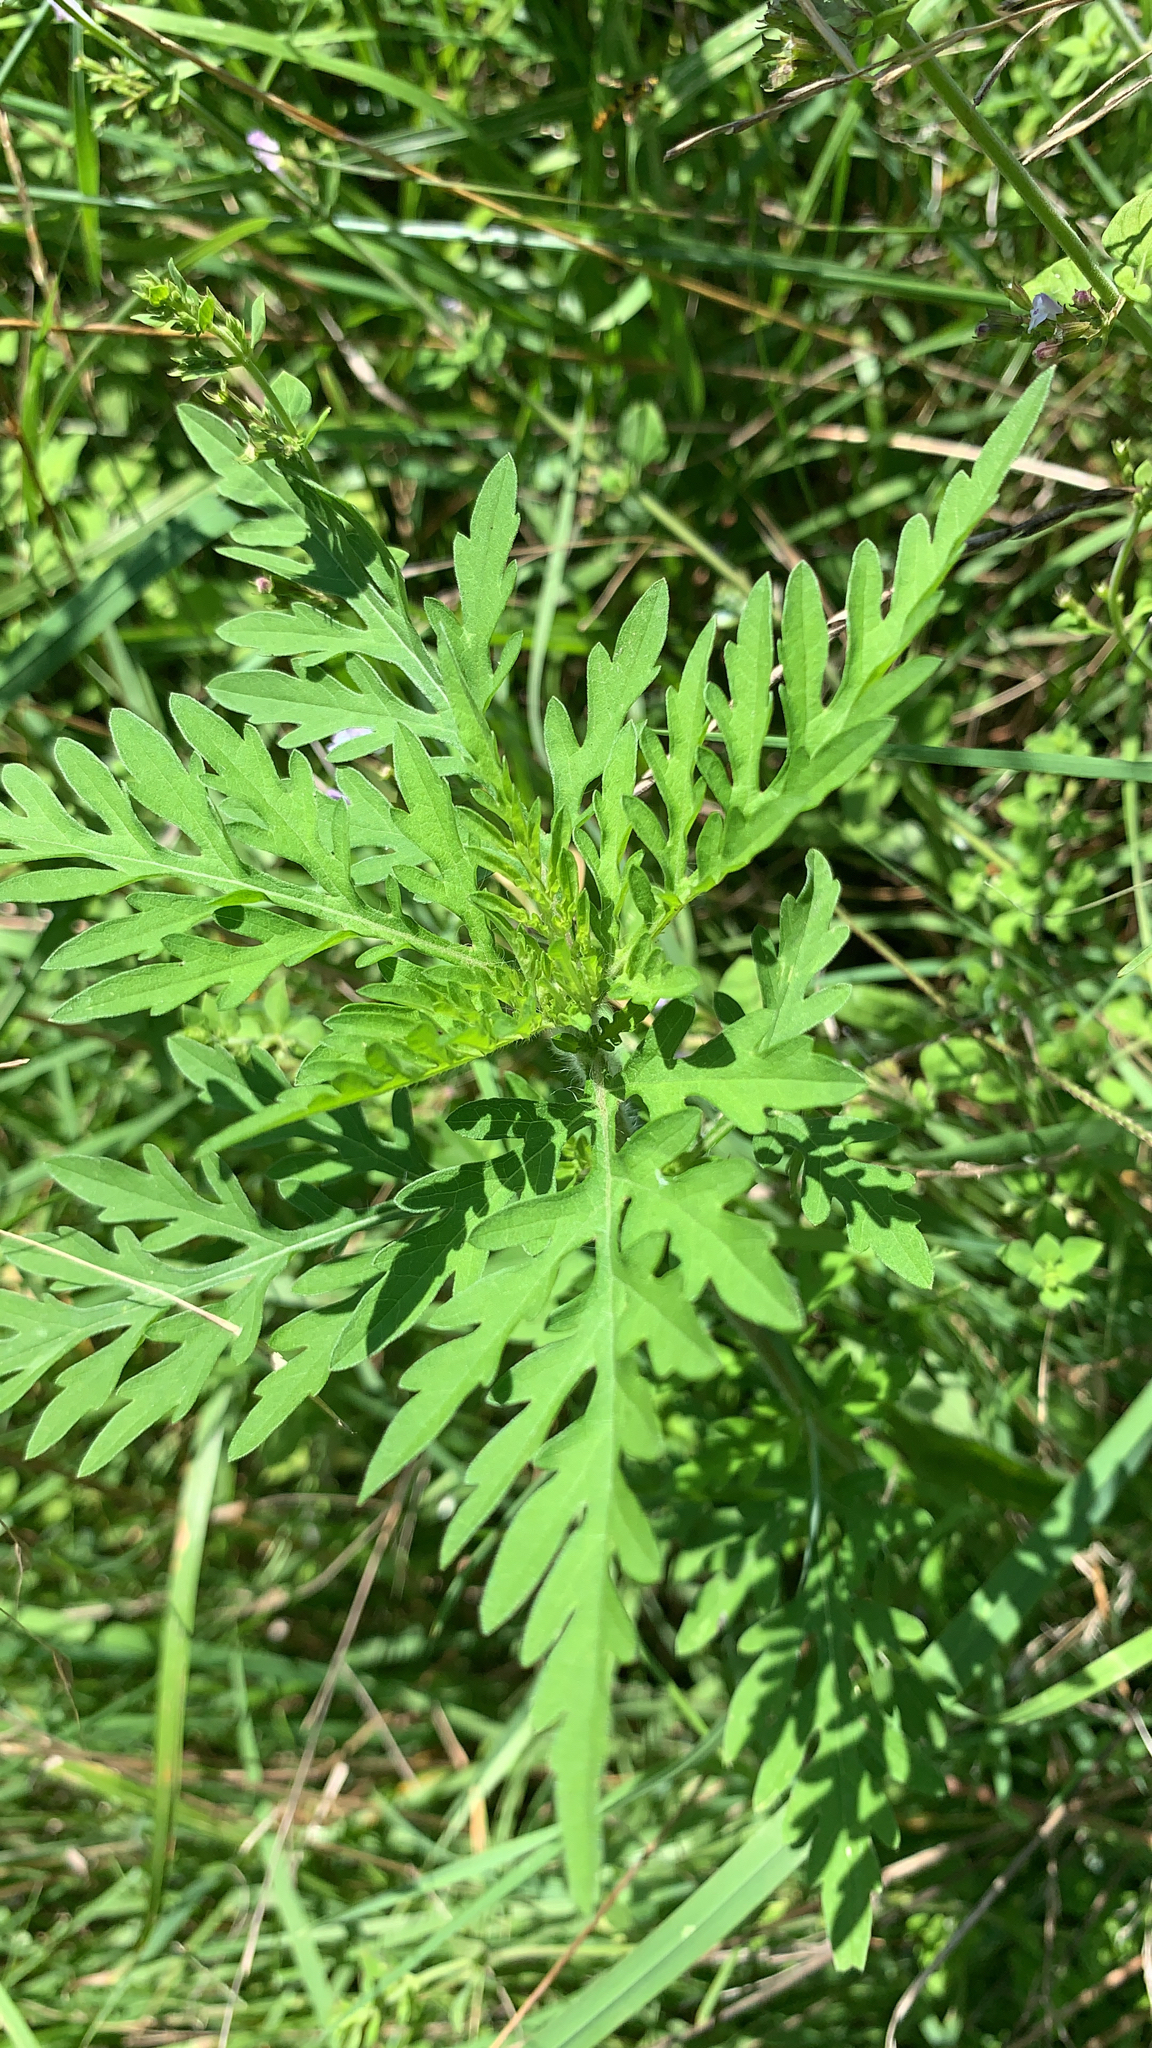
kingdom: Plantae
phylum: Tracheophyta
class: Magnoliopsida
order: Asterales
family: Asteraceae
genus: Ambrosia
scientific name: Ambrosia artemisiifolia
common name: Annual ragweed
